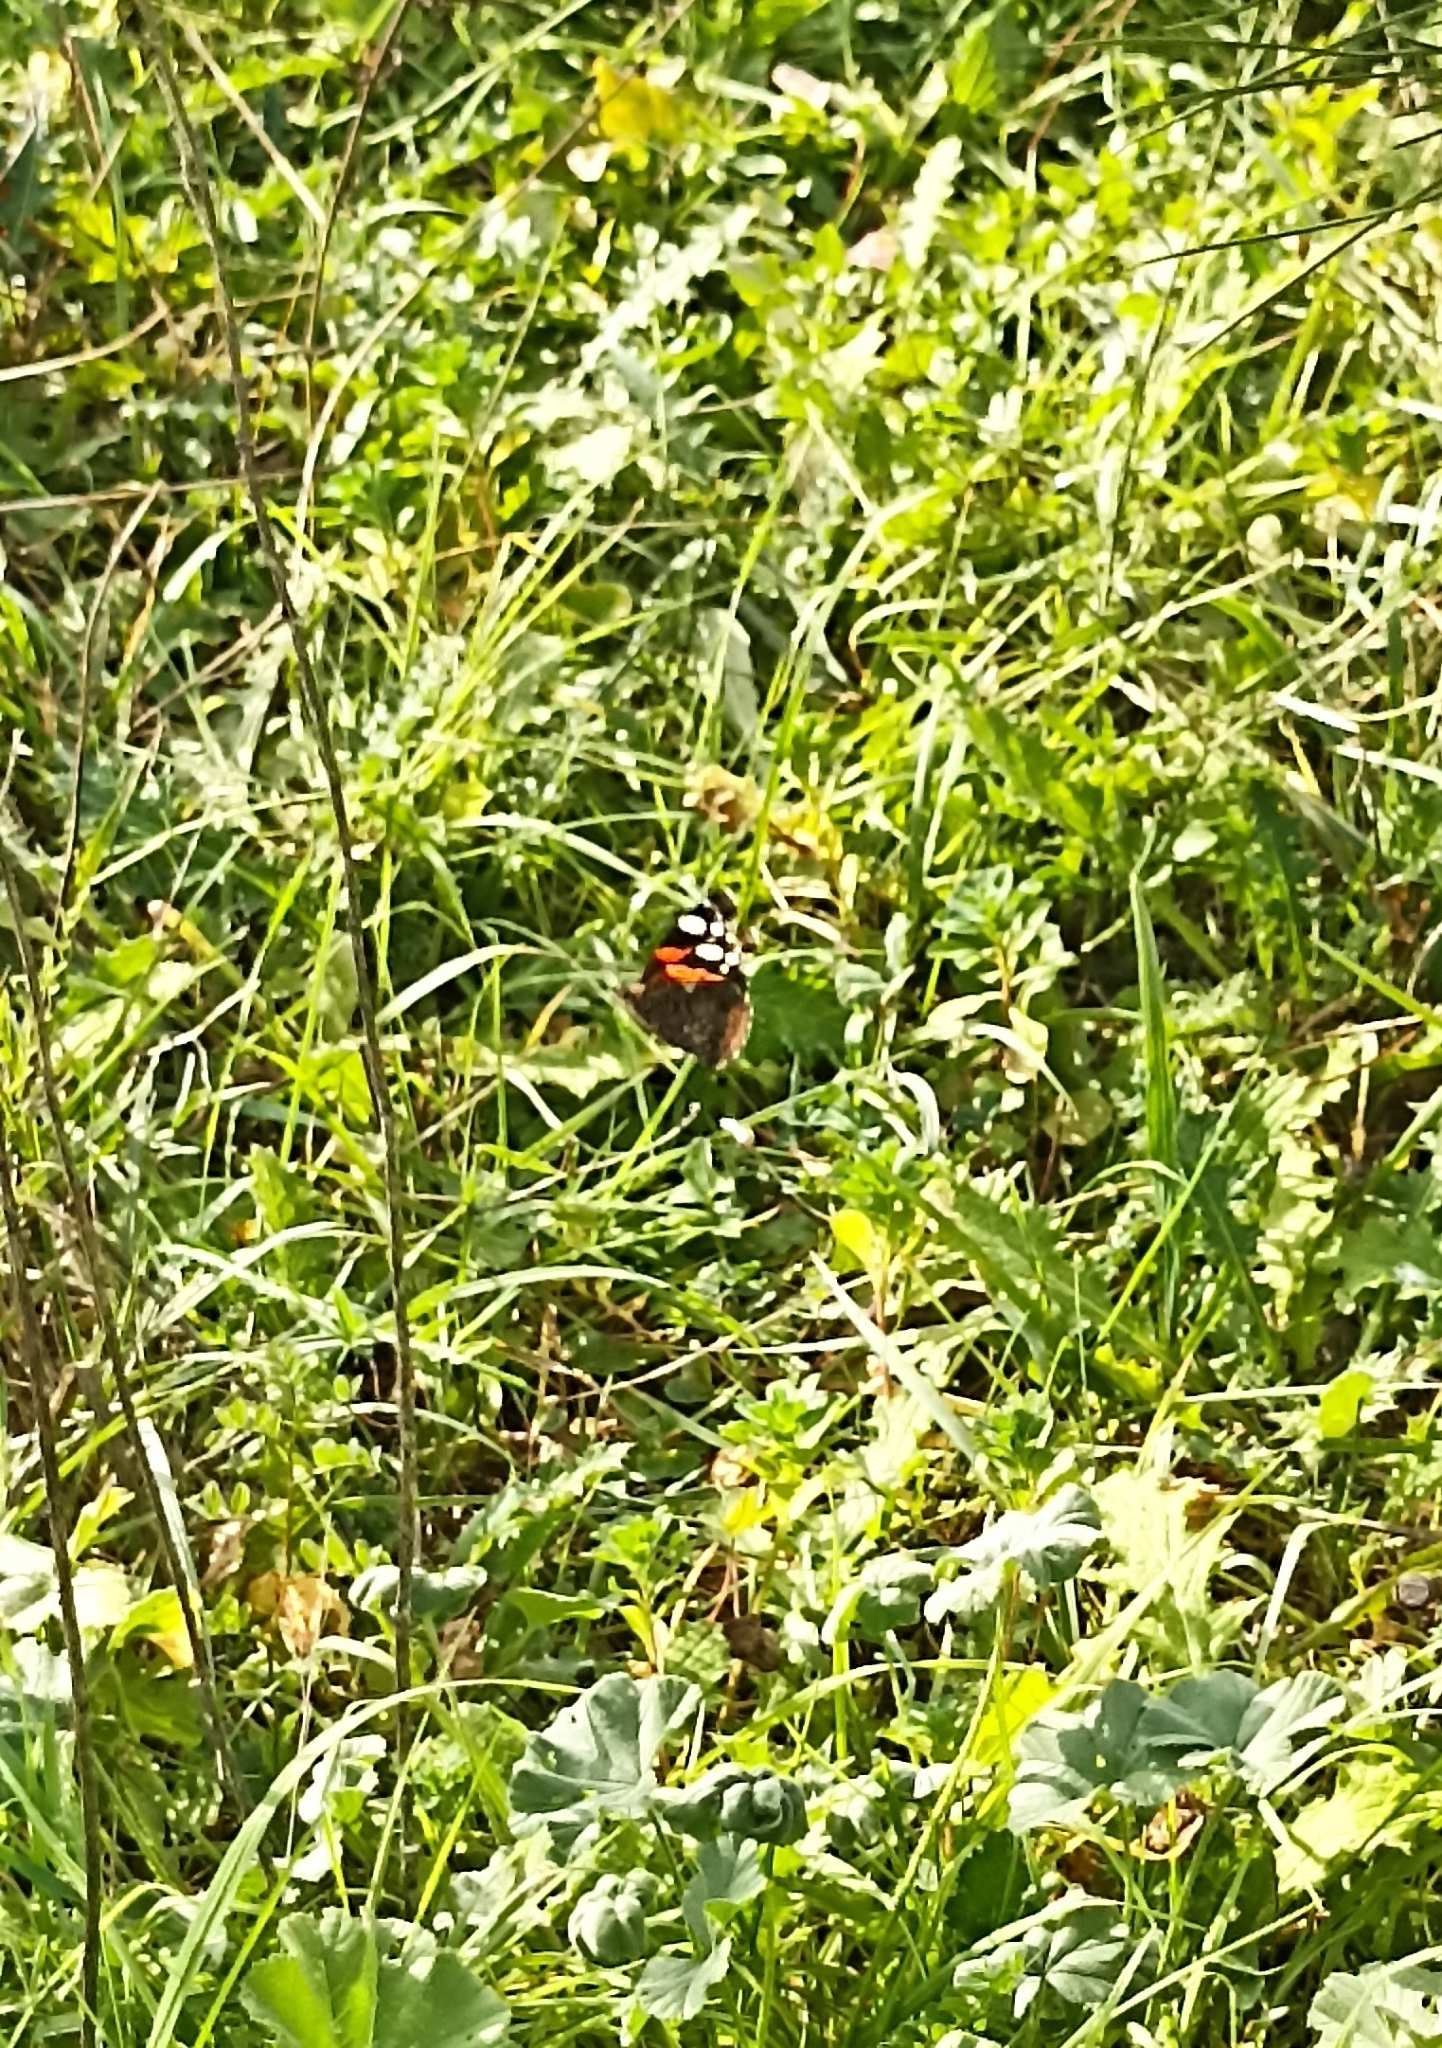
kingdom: Animalia
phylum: Arthropoda
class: Insecta
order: Lepidoptera
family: Nymphalidae
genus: Vanessa
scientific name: Vanessa atalanta
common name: Red admiral
